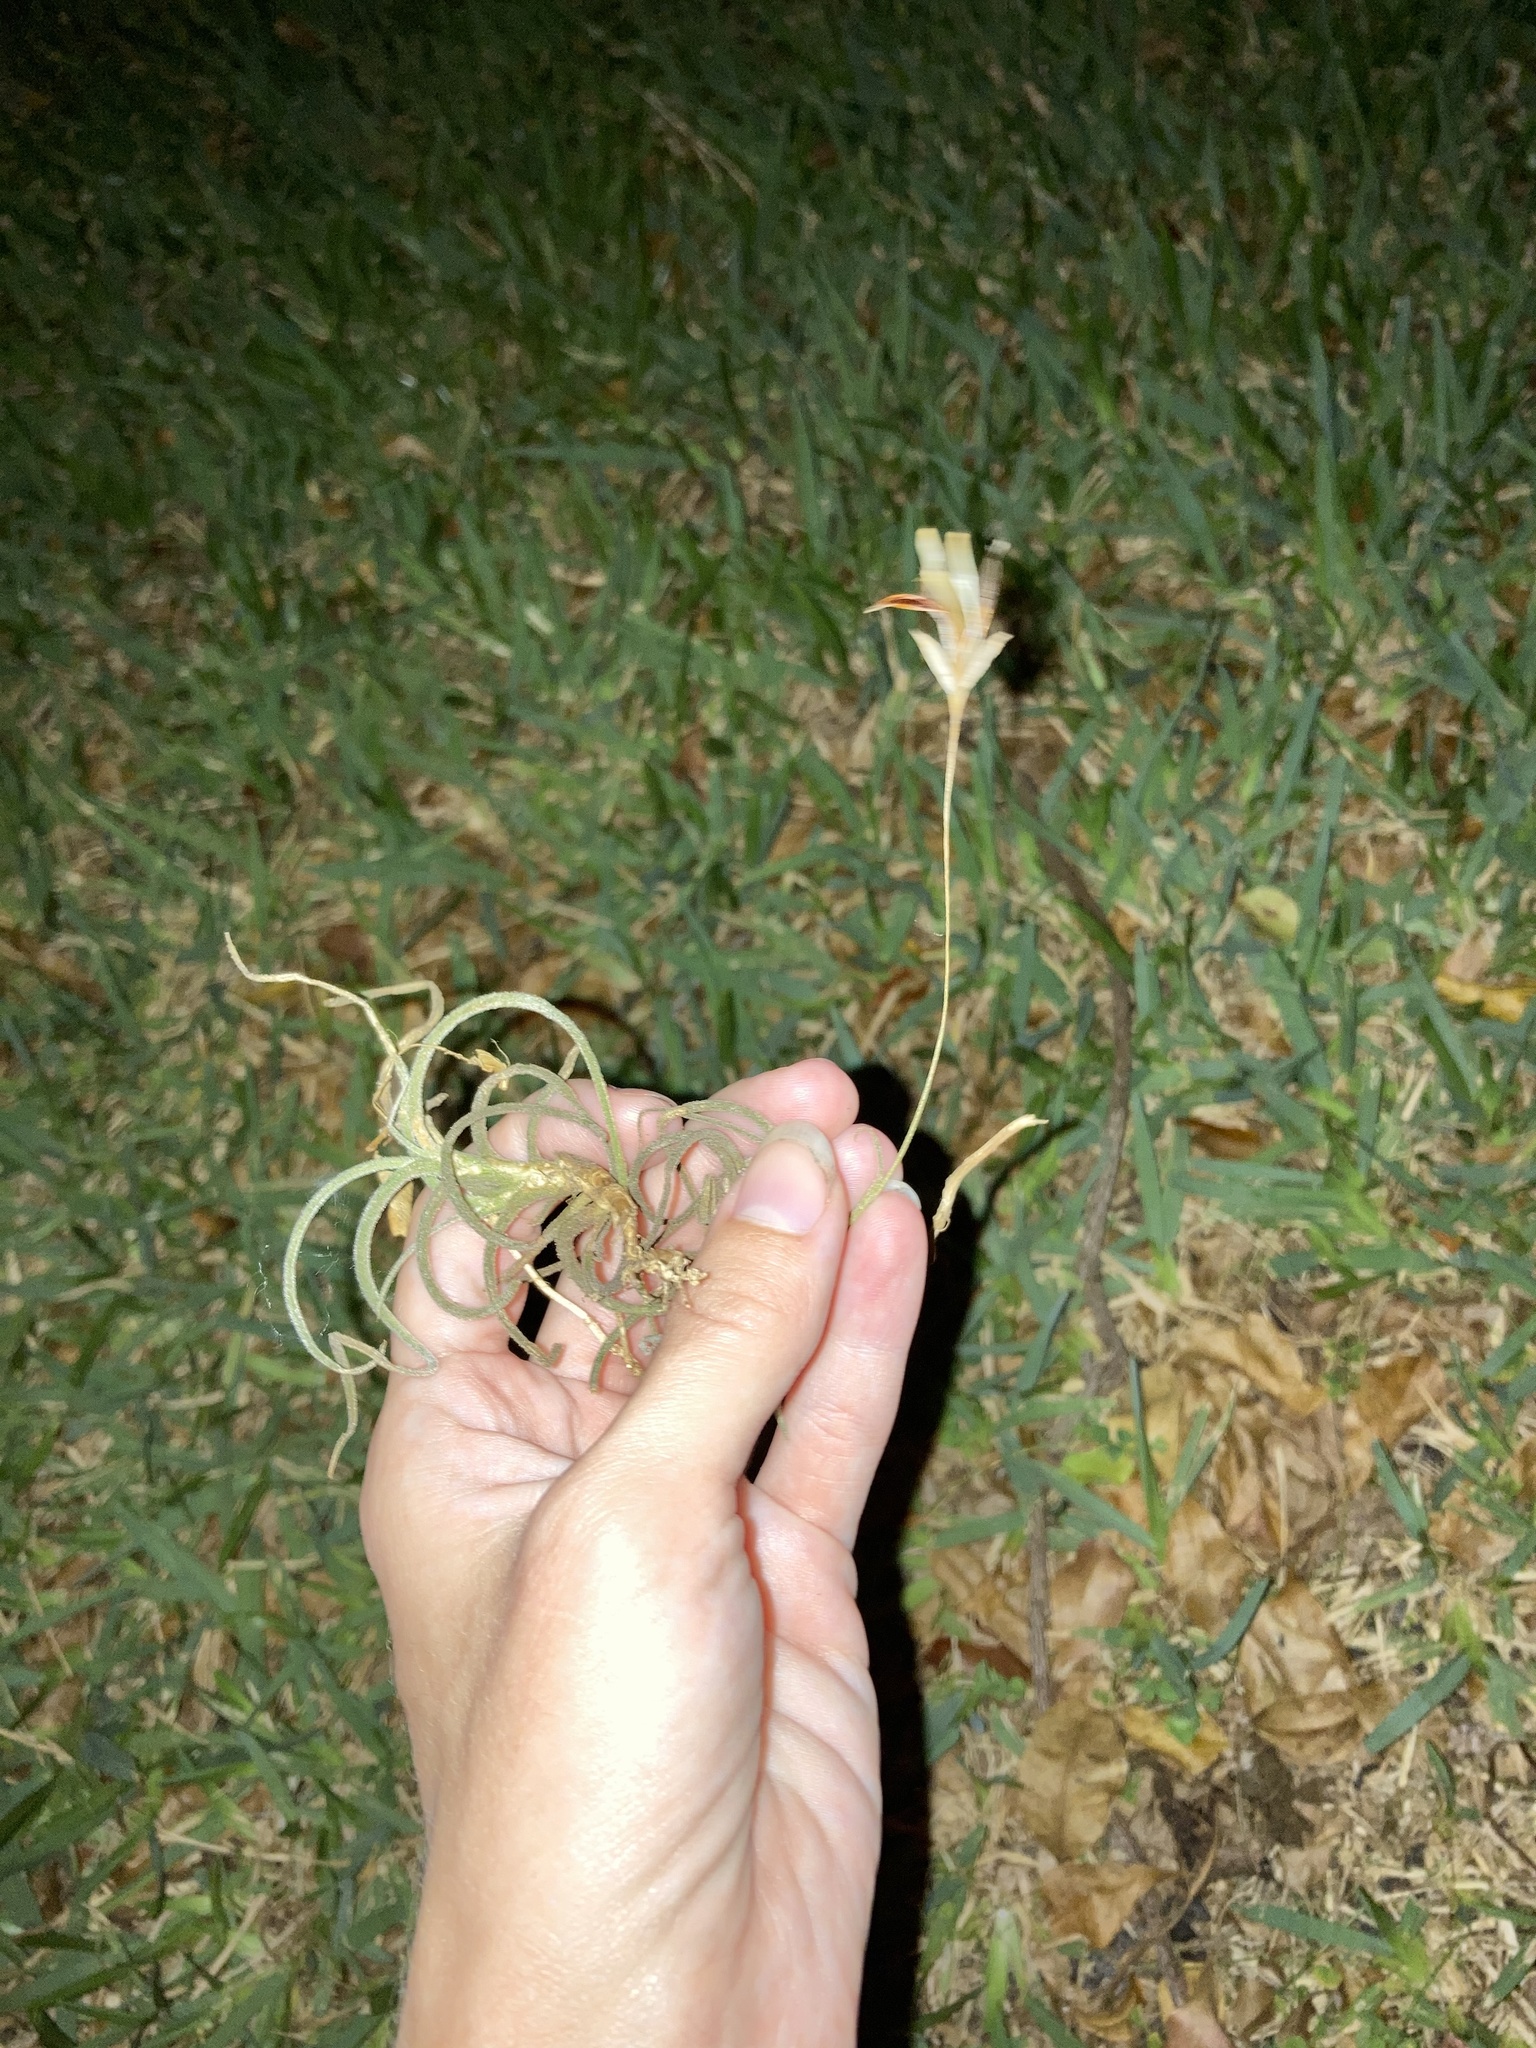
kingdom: Plantae
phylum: Tracheophyta
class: Liliopsida
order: Poales
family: Bromeliaceae
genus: Tillandsia
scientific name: Tillandsia recurvata
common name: Small ballmoss
